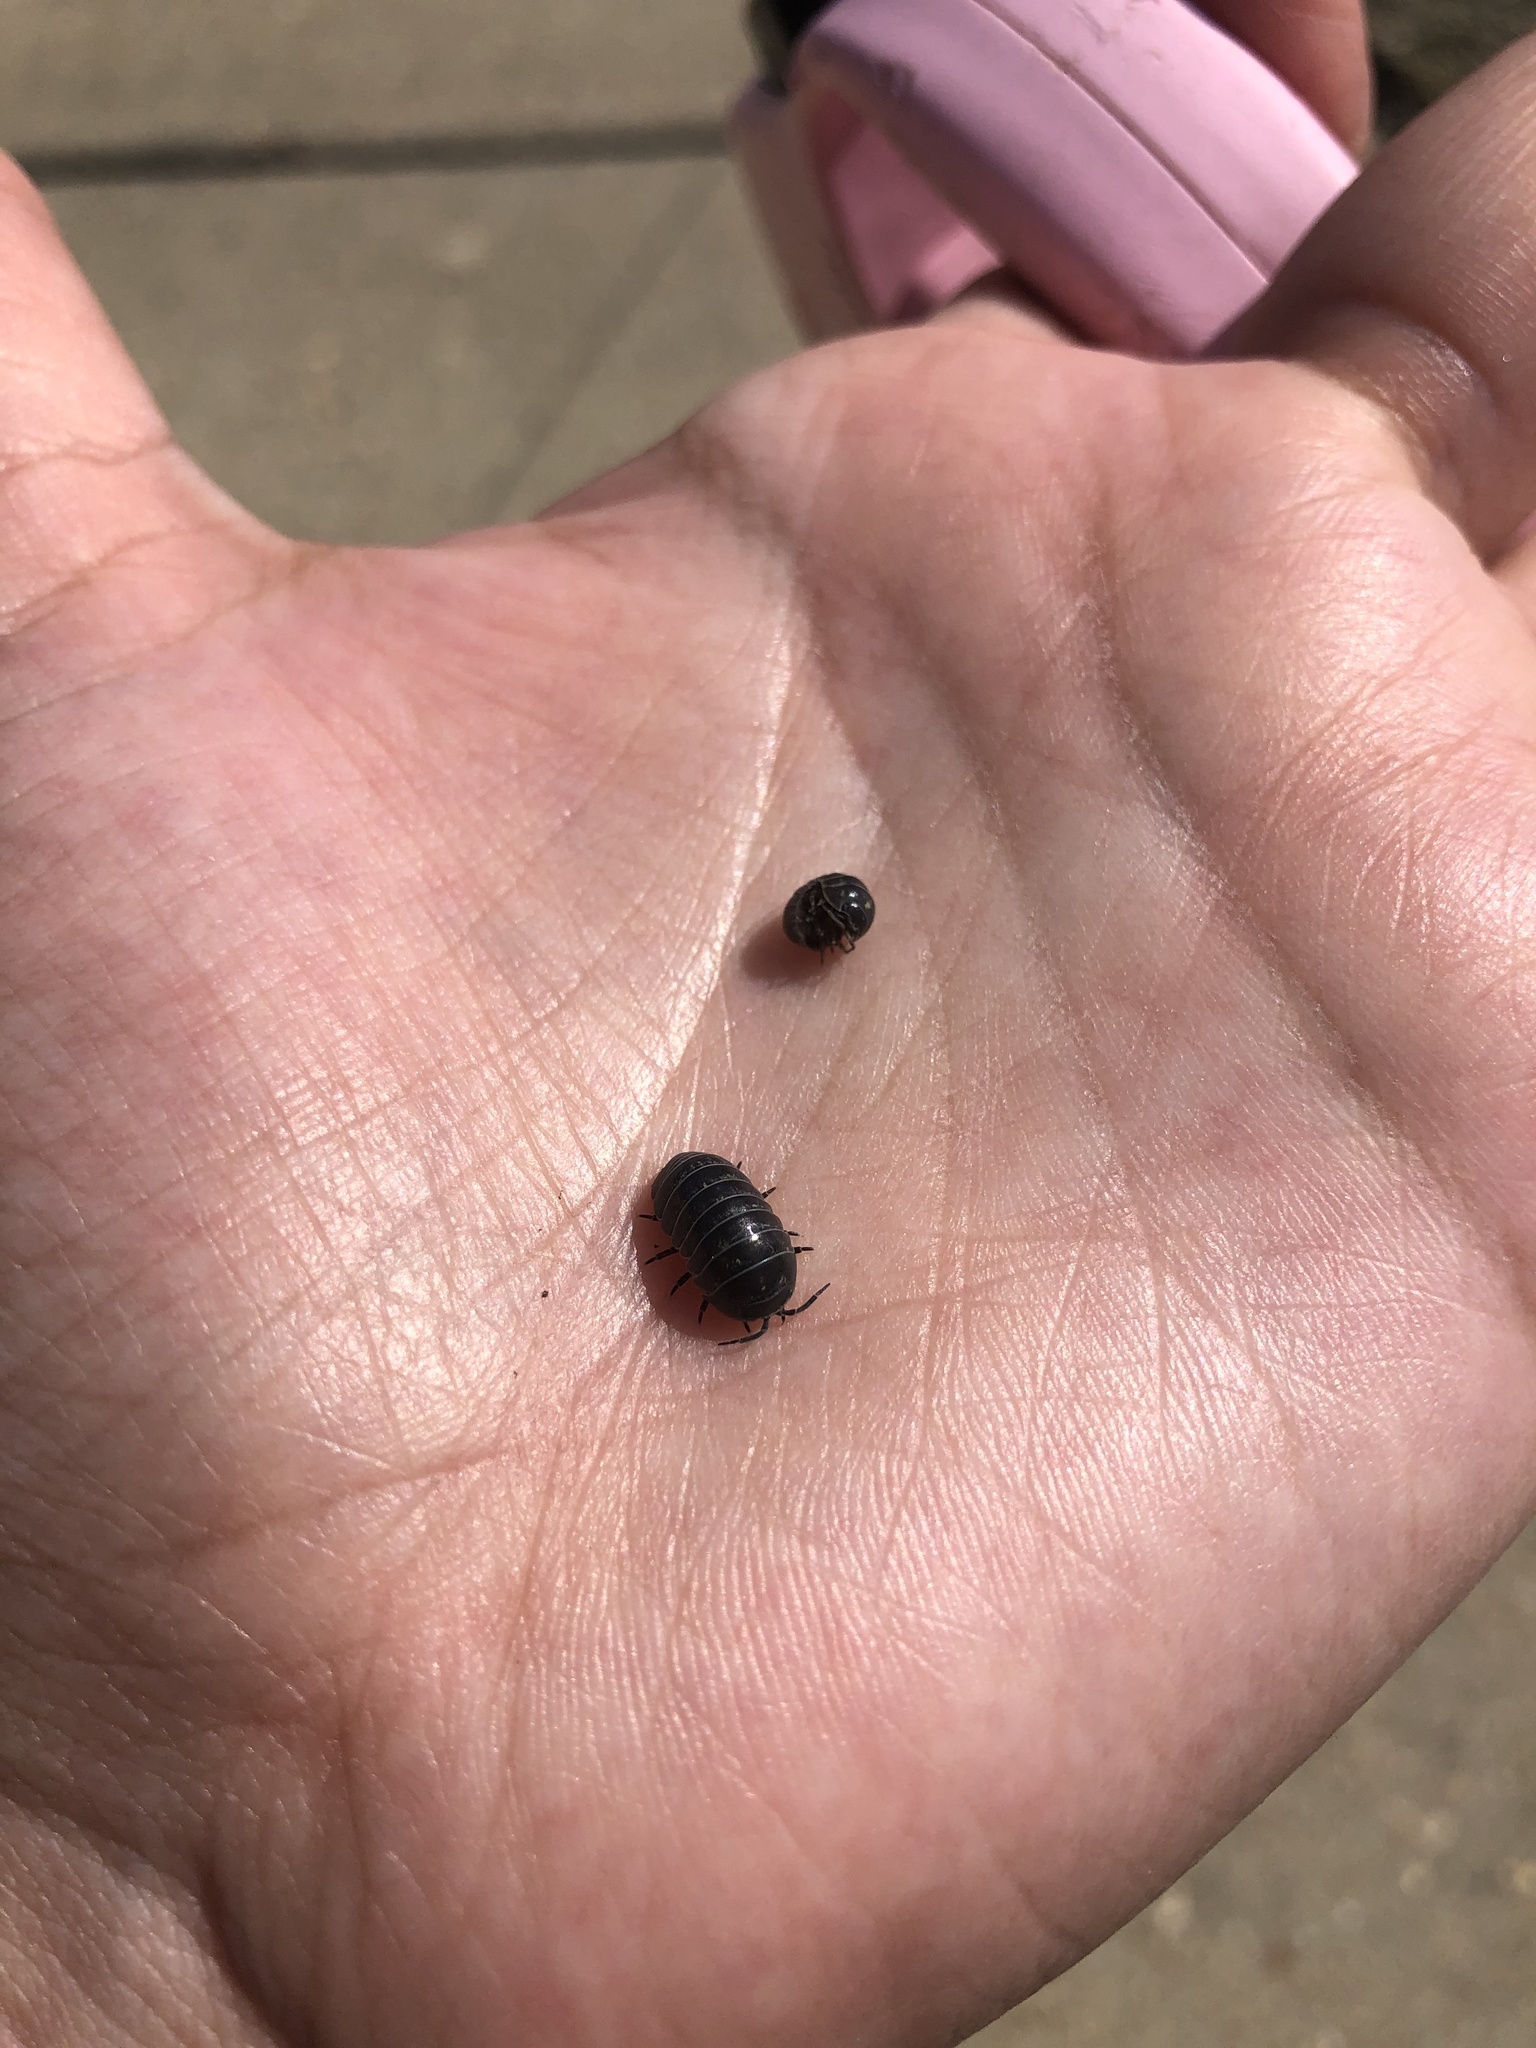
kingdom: Animalia
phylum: Arthropoda
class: Malacostraca
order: Isopoda
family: Armadillidiidae
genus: Armadillidium
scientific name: Armadillidium vulgare
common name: Common pill woodlouse
